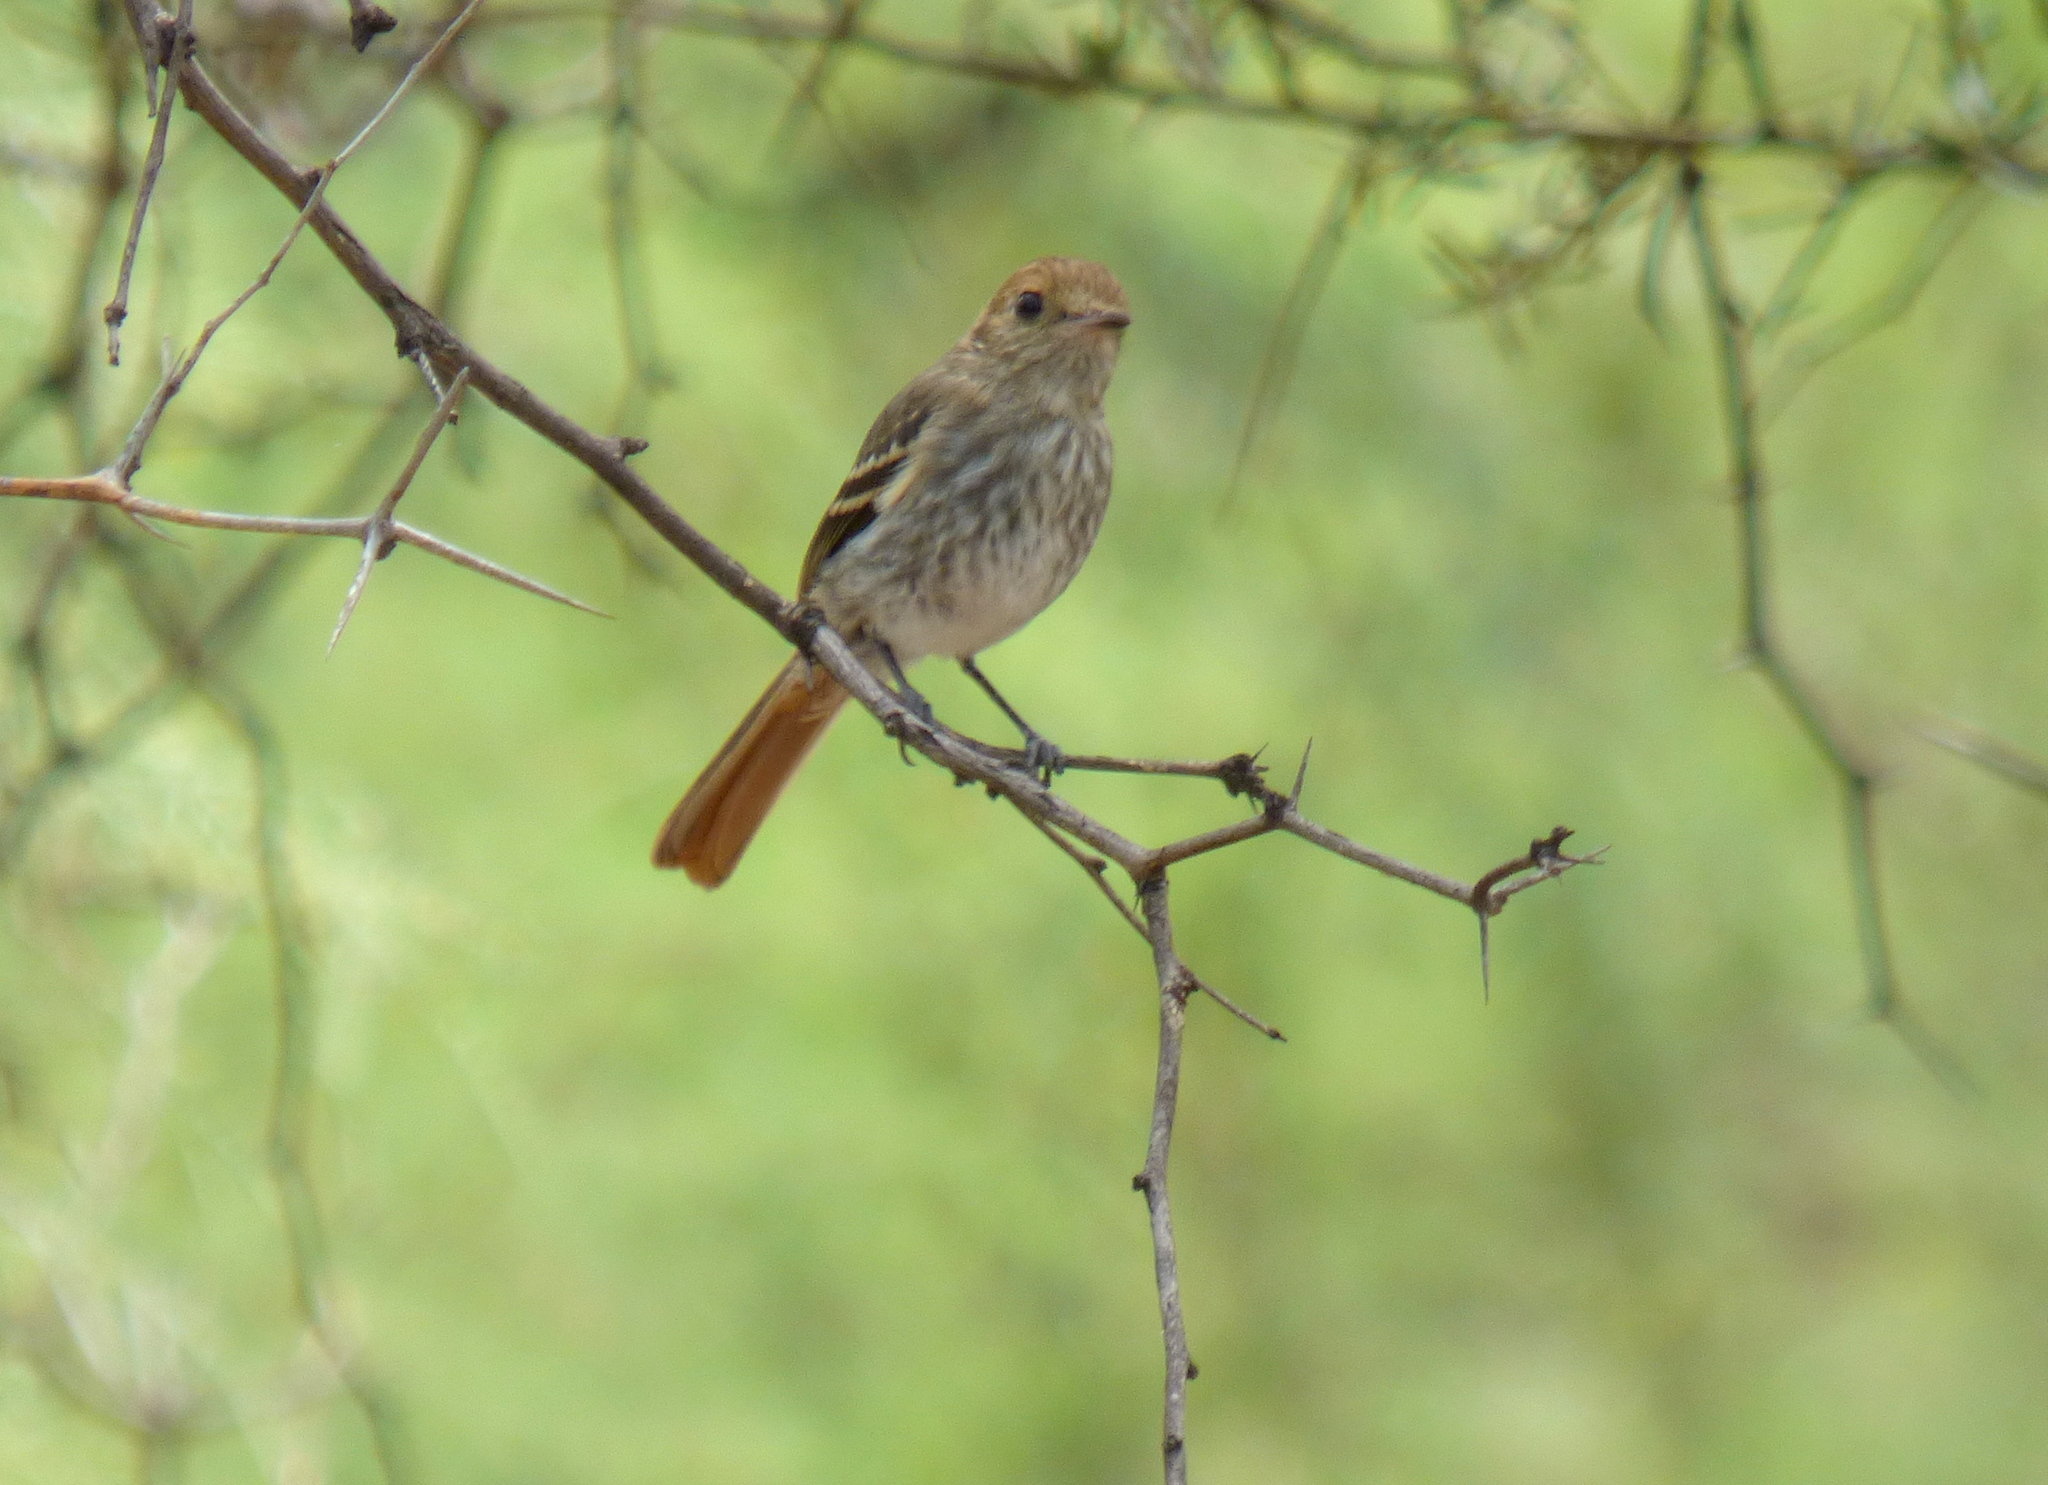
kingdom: Animalia
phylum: Chordata
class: Aves
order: Passeriformes
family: Tyrannidae
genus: Myiophobus
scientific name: Myiophobus fasciatus
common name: Bran-colored flycatcher
